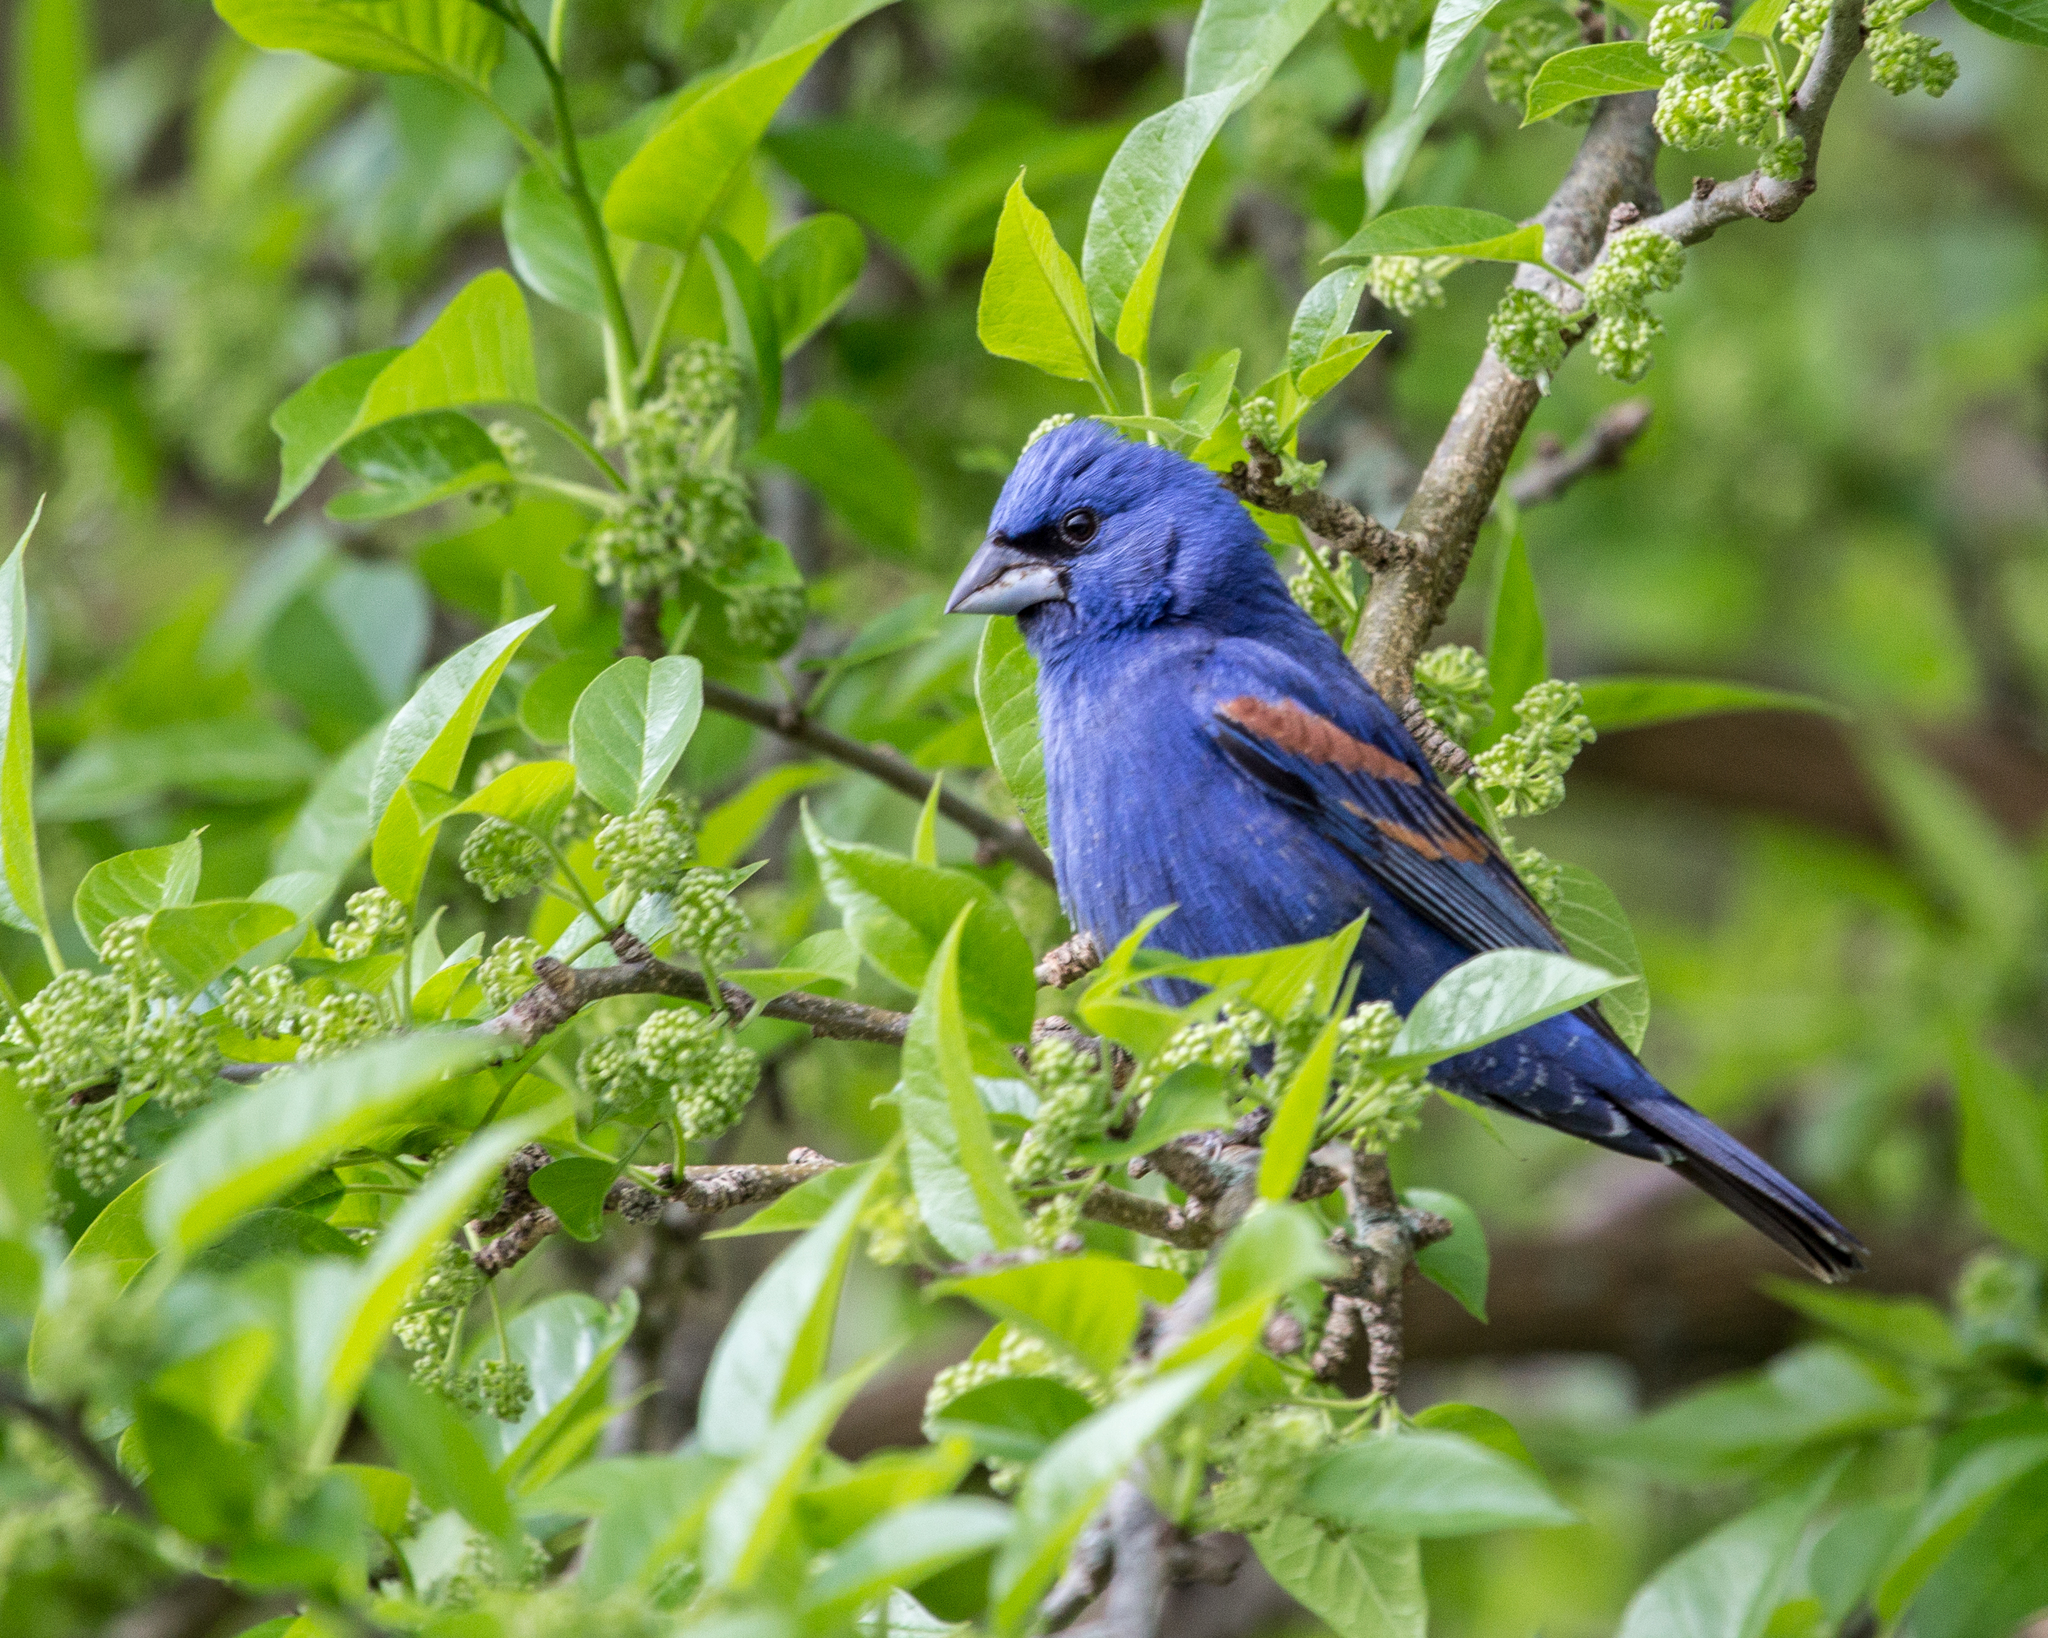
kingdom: Animalia
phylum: Chordata
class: Aves
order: Passeriformes
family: Cardinalidae
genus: Passerina
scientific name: Passerina caerulea
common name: Blue grosbeak
